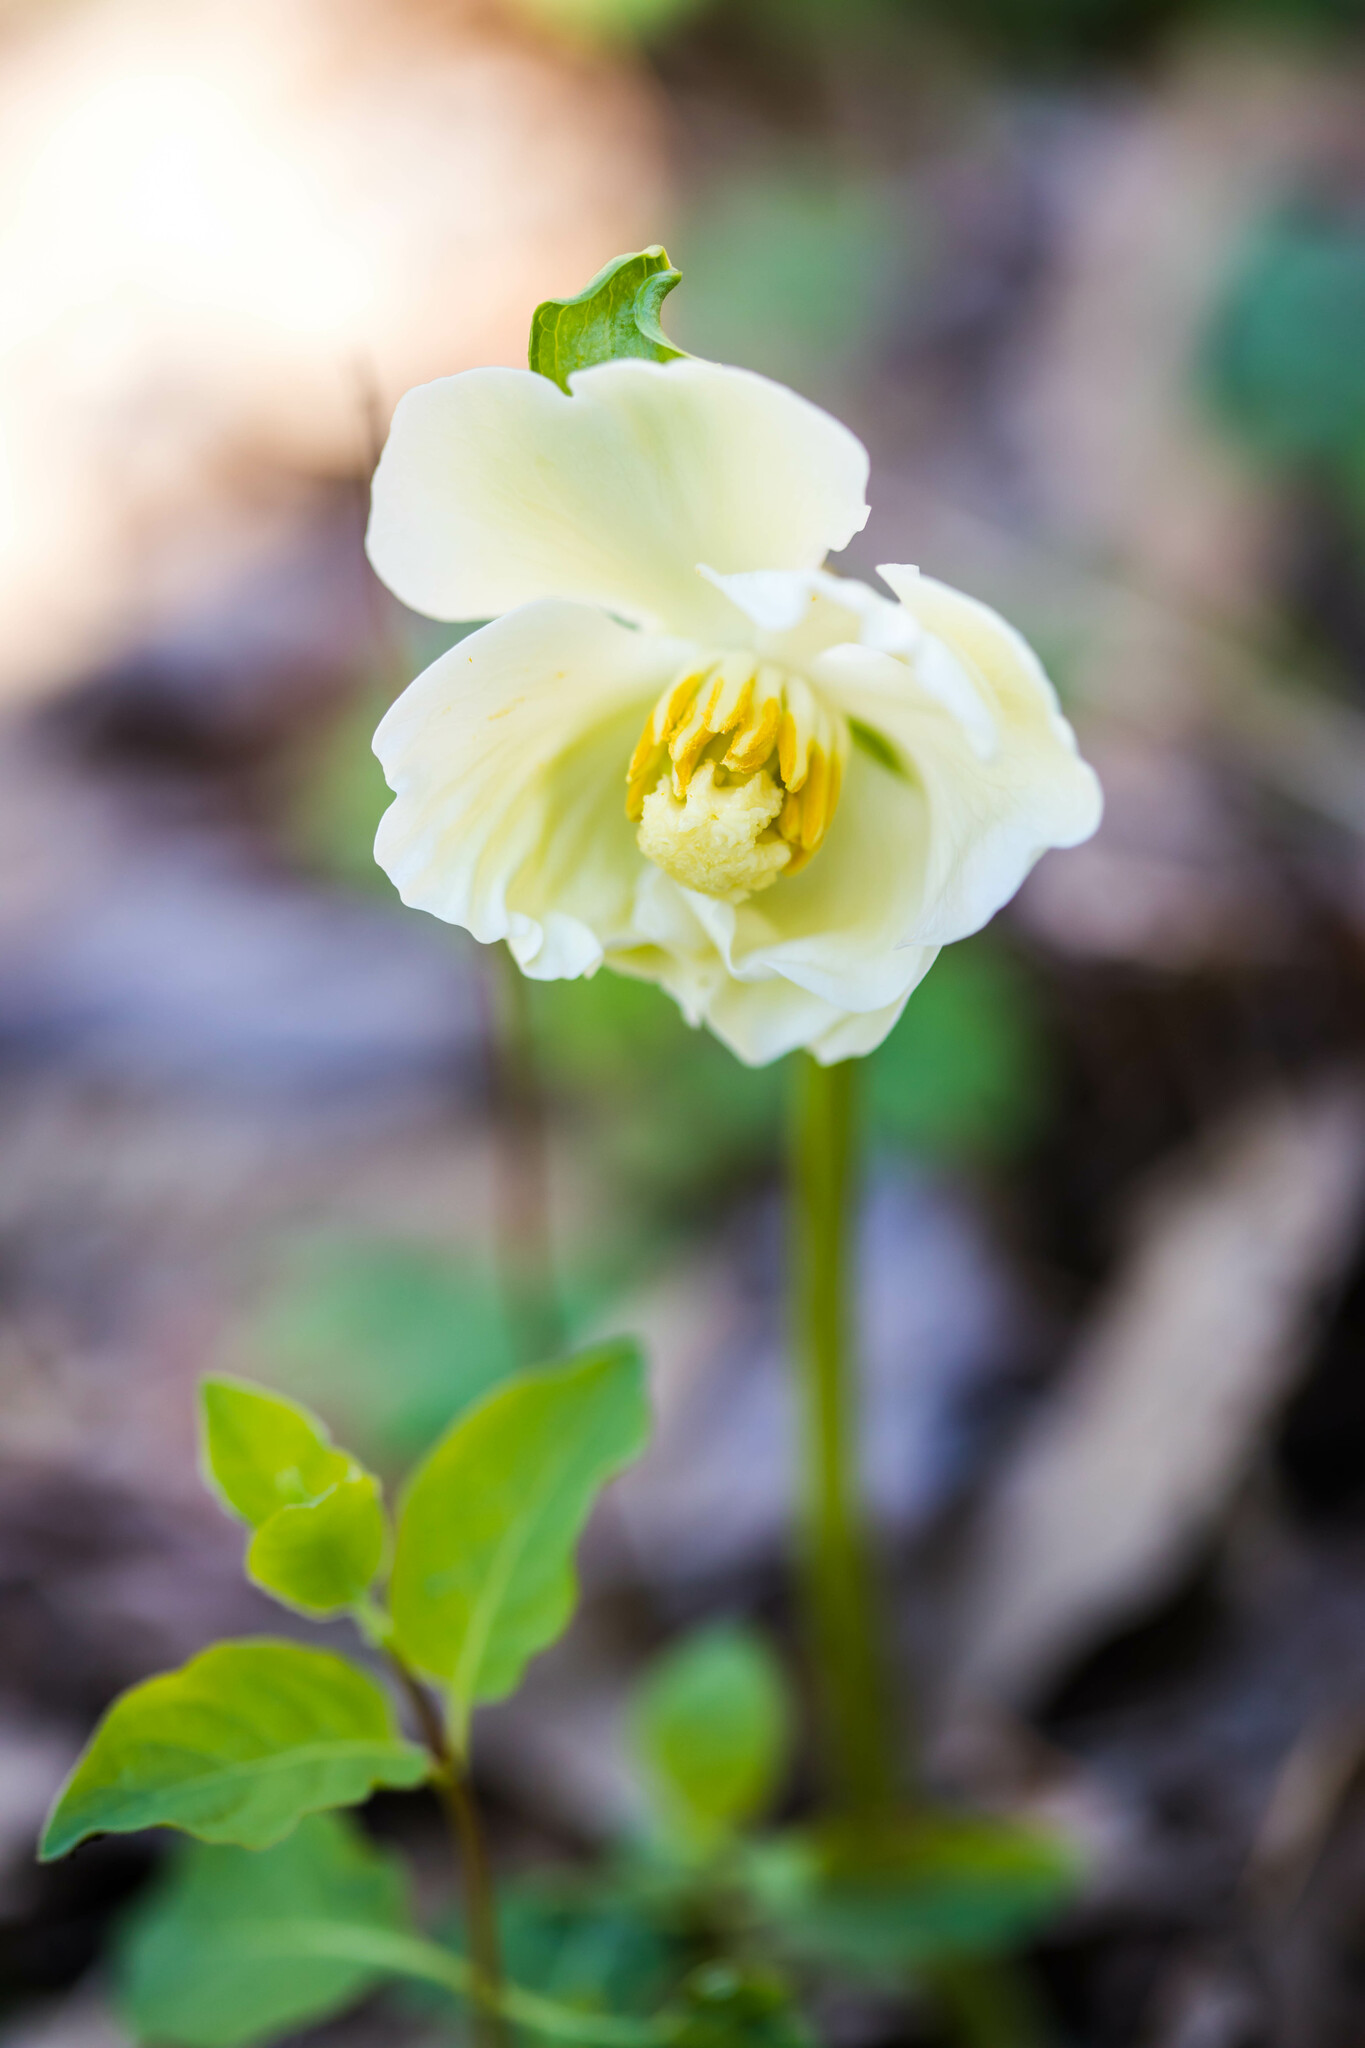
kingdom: Plantae
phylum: Tracheophyta
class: Magnoliopsida
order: Ranunculales
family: Berberidaceae
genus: Podophyllum
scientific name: Podophyllum peltatum
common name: Wild mandrake
